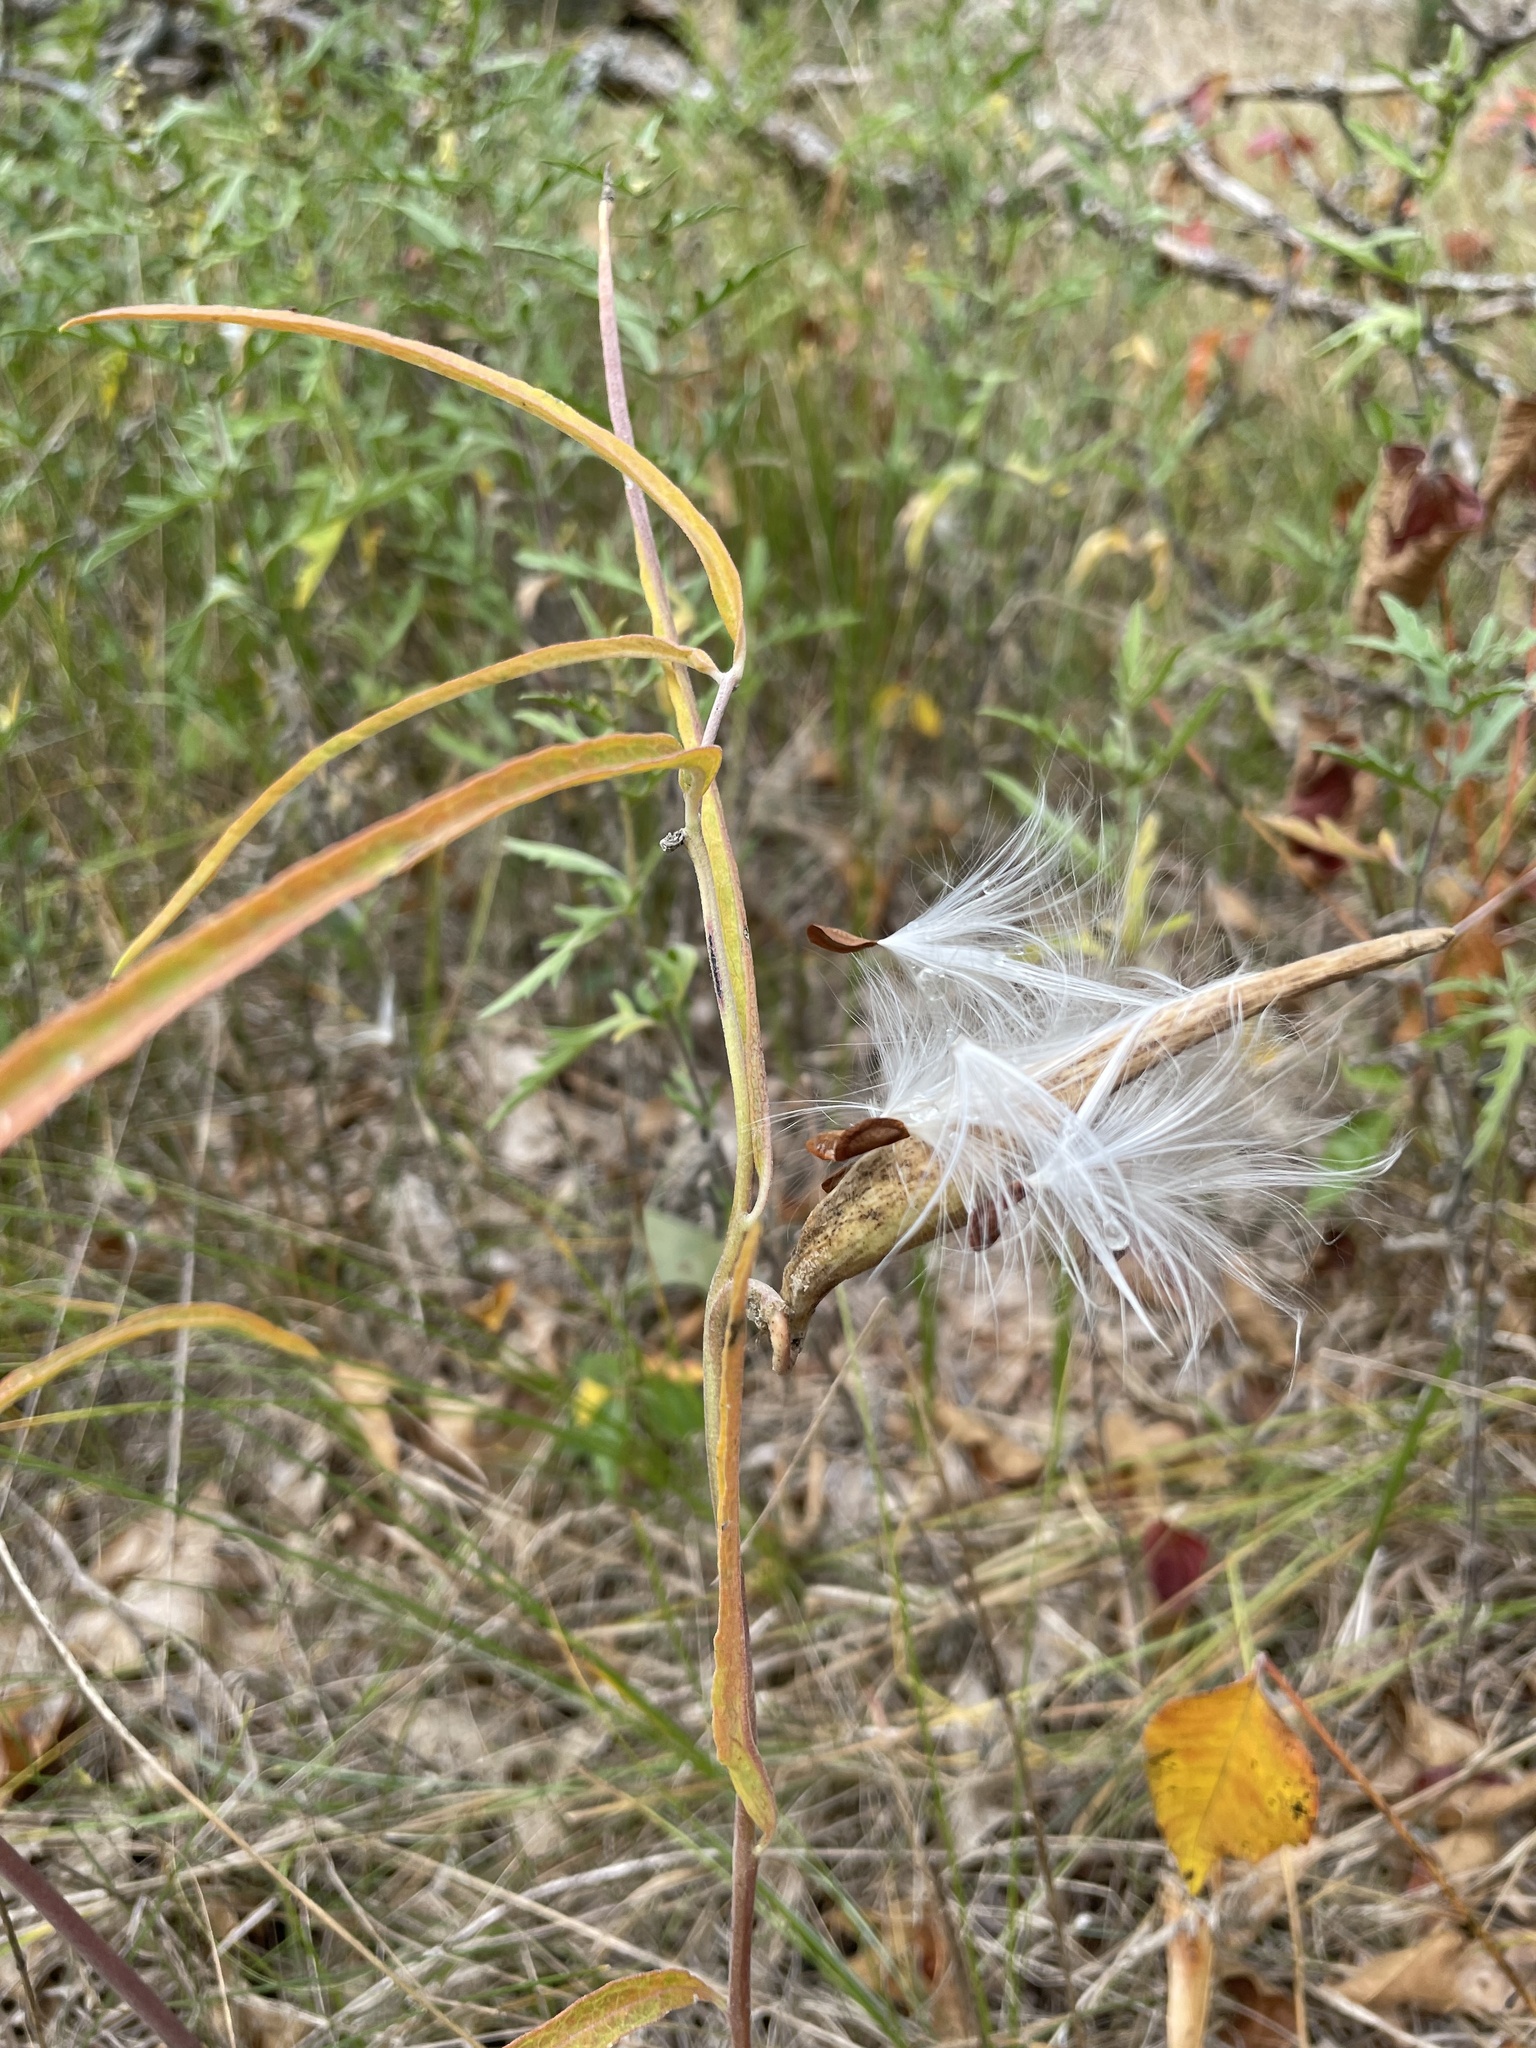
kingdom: Plantae
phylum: Tracheophyta
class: Magnoliopsida
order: Gentianales
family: Apocynaceae
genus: Asclepias
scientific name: Asclepias viridiflora
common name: Green comet milkweed
